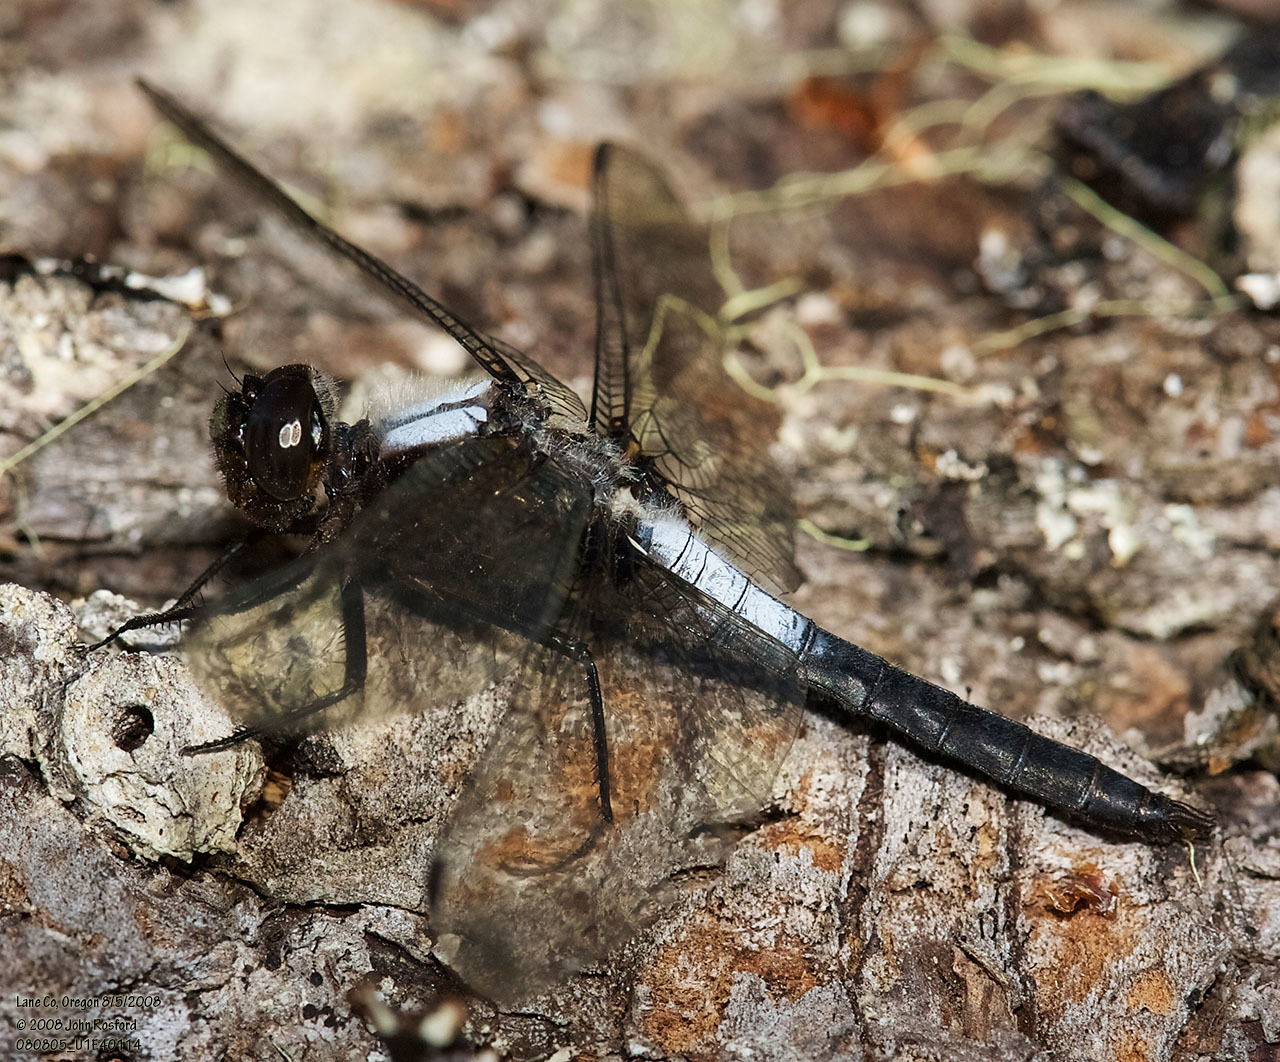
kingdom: Animalia
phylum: Arthropoda
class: Insecta
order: Odonata
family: Libellulidae
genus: Ladona
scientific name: Ladona julia
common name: Chalk-fronted corporal
